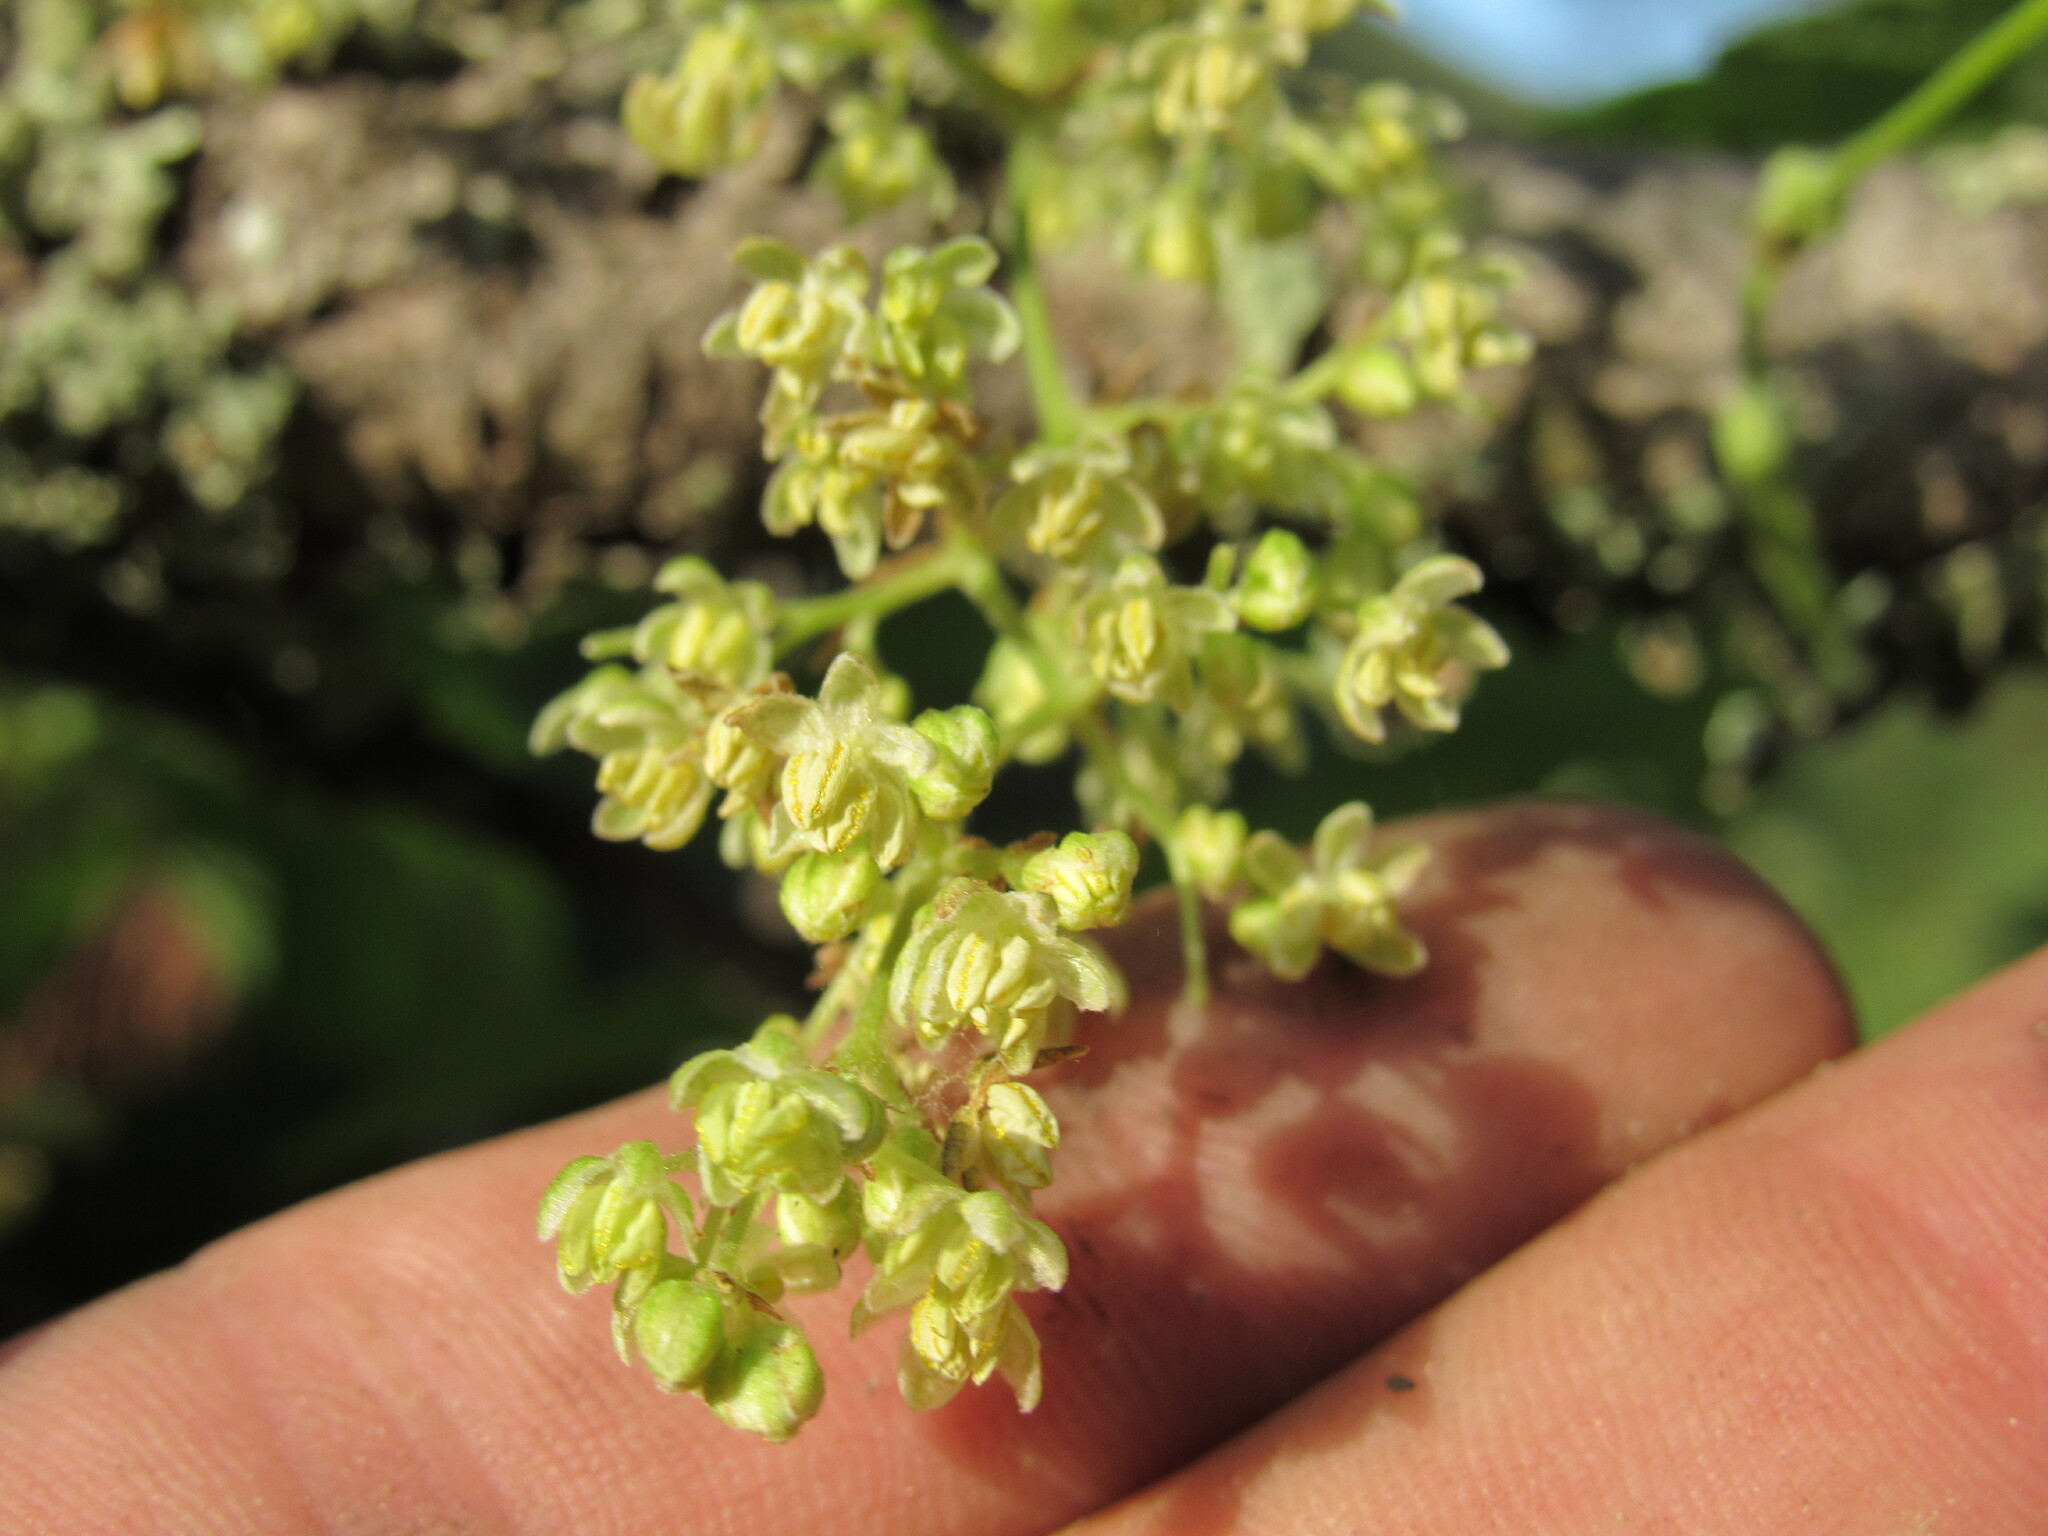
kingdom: Plantae
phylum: Tracheophyta
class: Magnoliopsida
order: Rosales
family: Cannabaceae
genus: Humulus
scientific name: Humulus lupulus
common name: Hop
